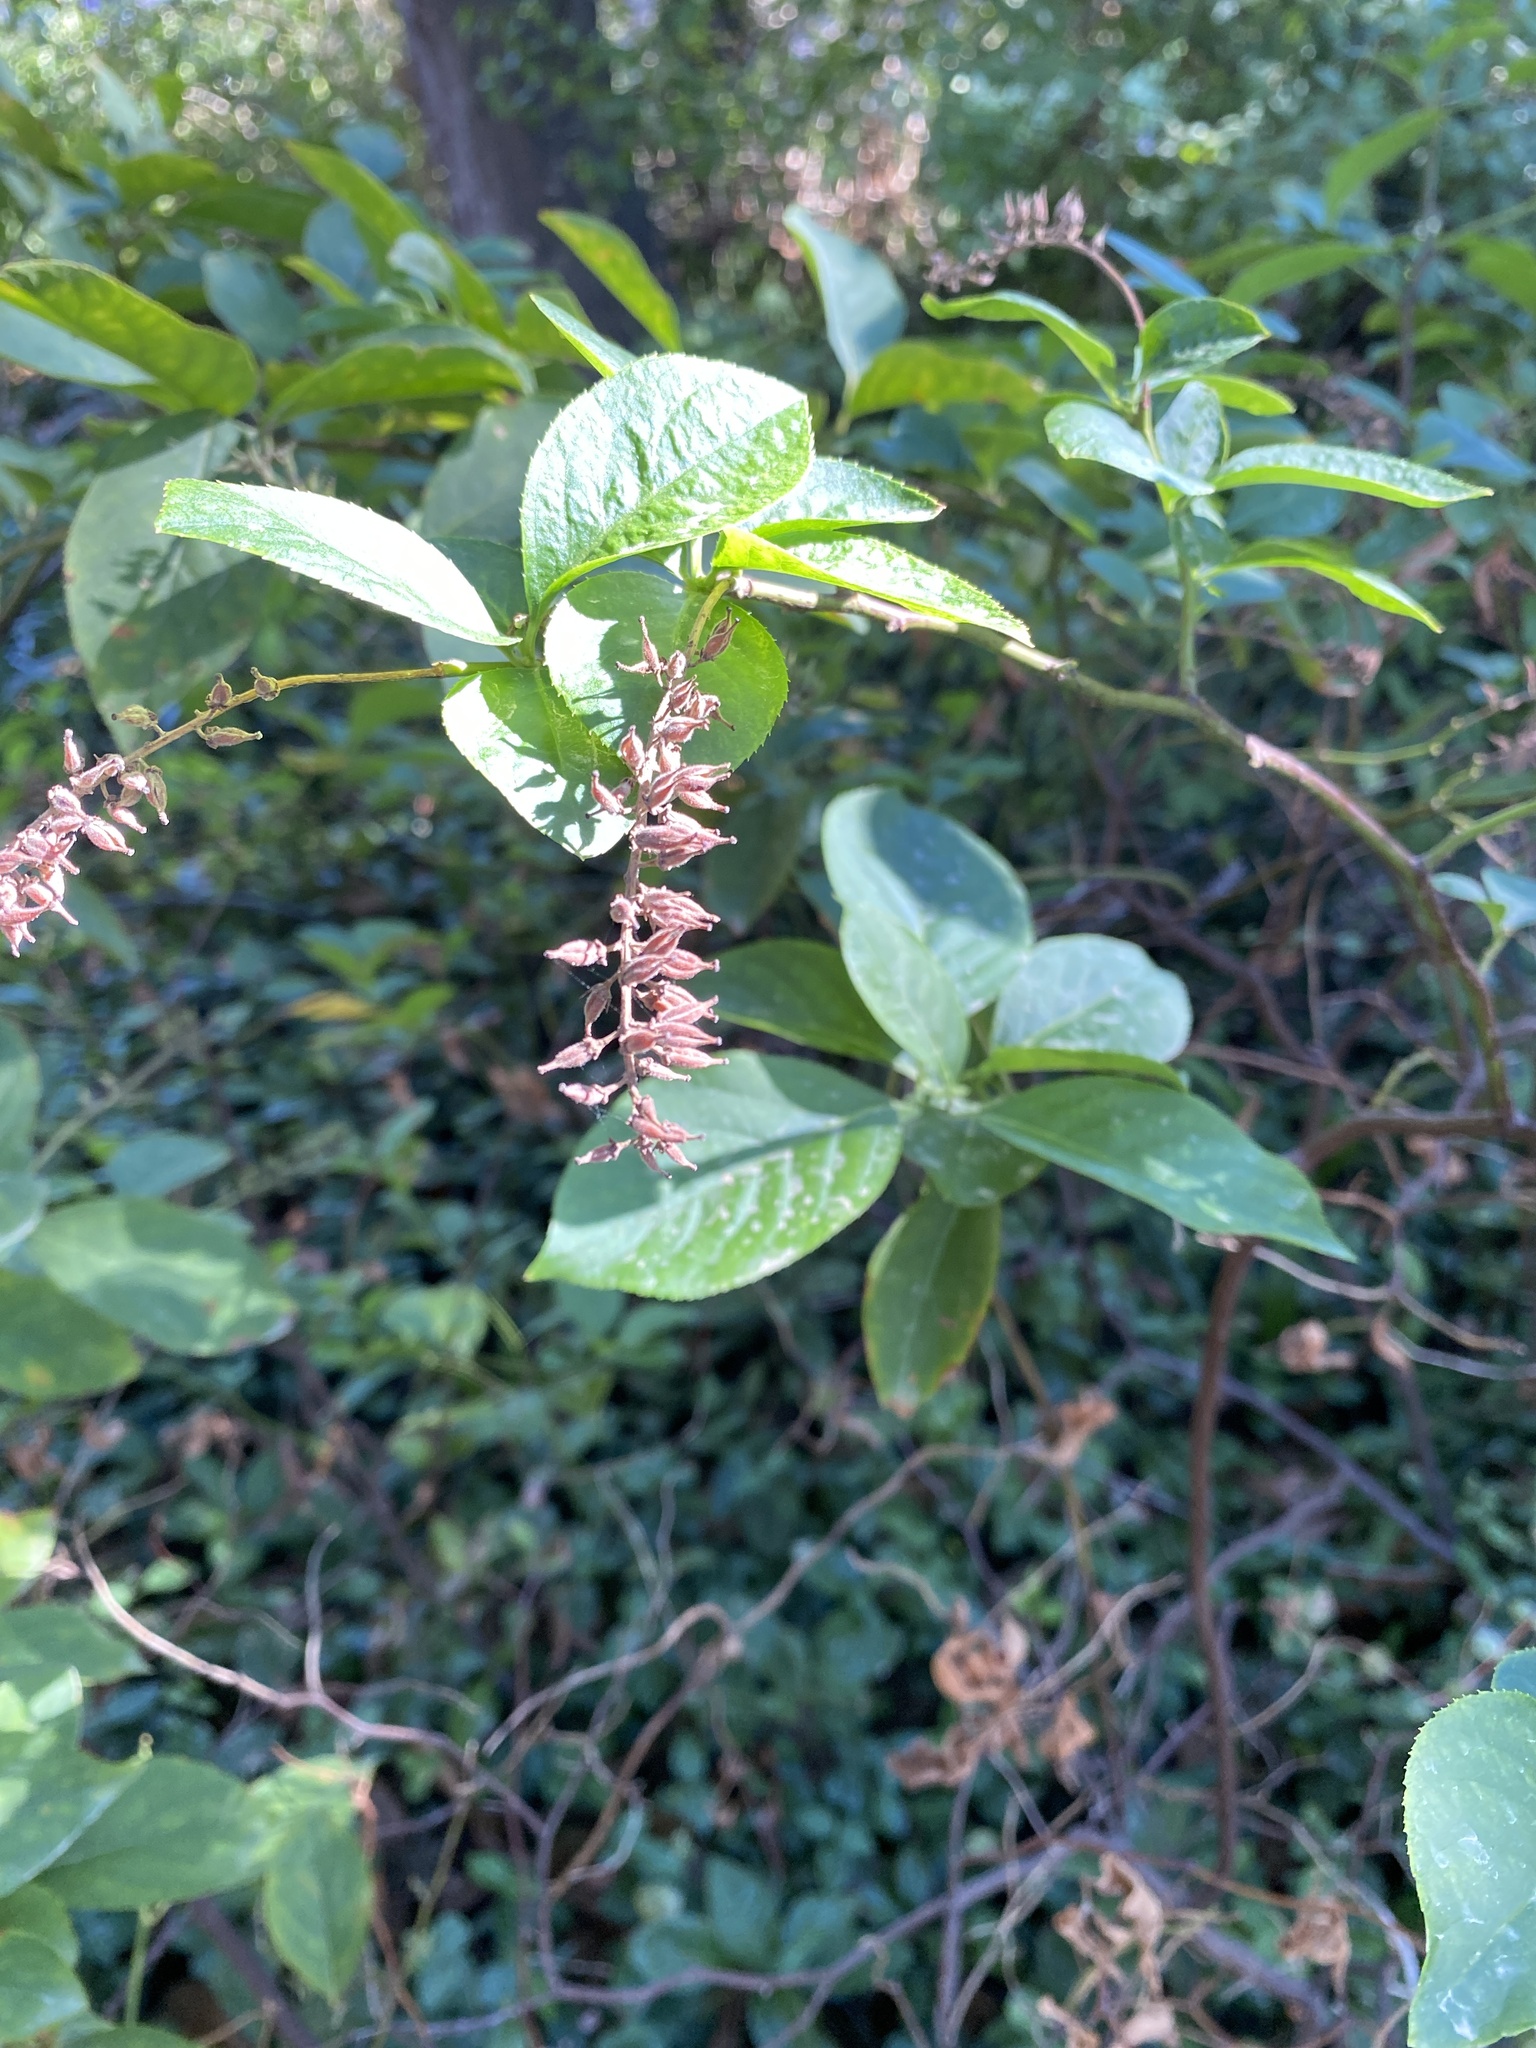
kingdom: Plantae
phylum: Tracheophyta
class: Magnoliopsida
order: Saxifragales
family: Iteaceae
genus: Itea
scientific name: Itea virginica
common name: Sweetspire
